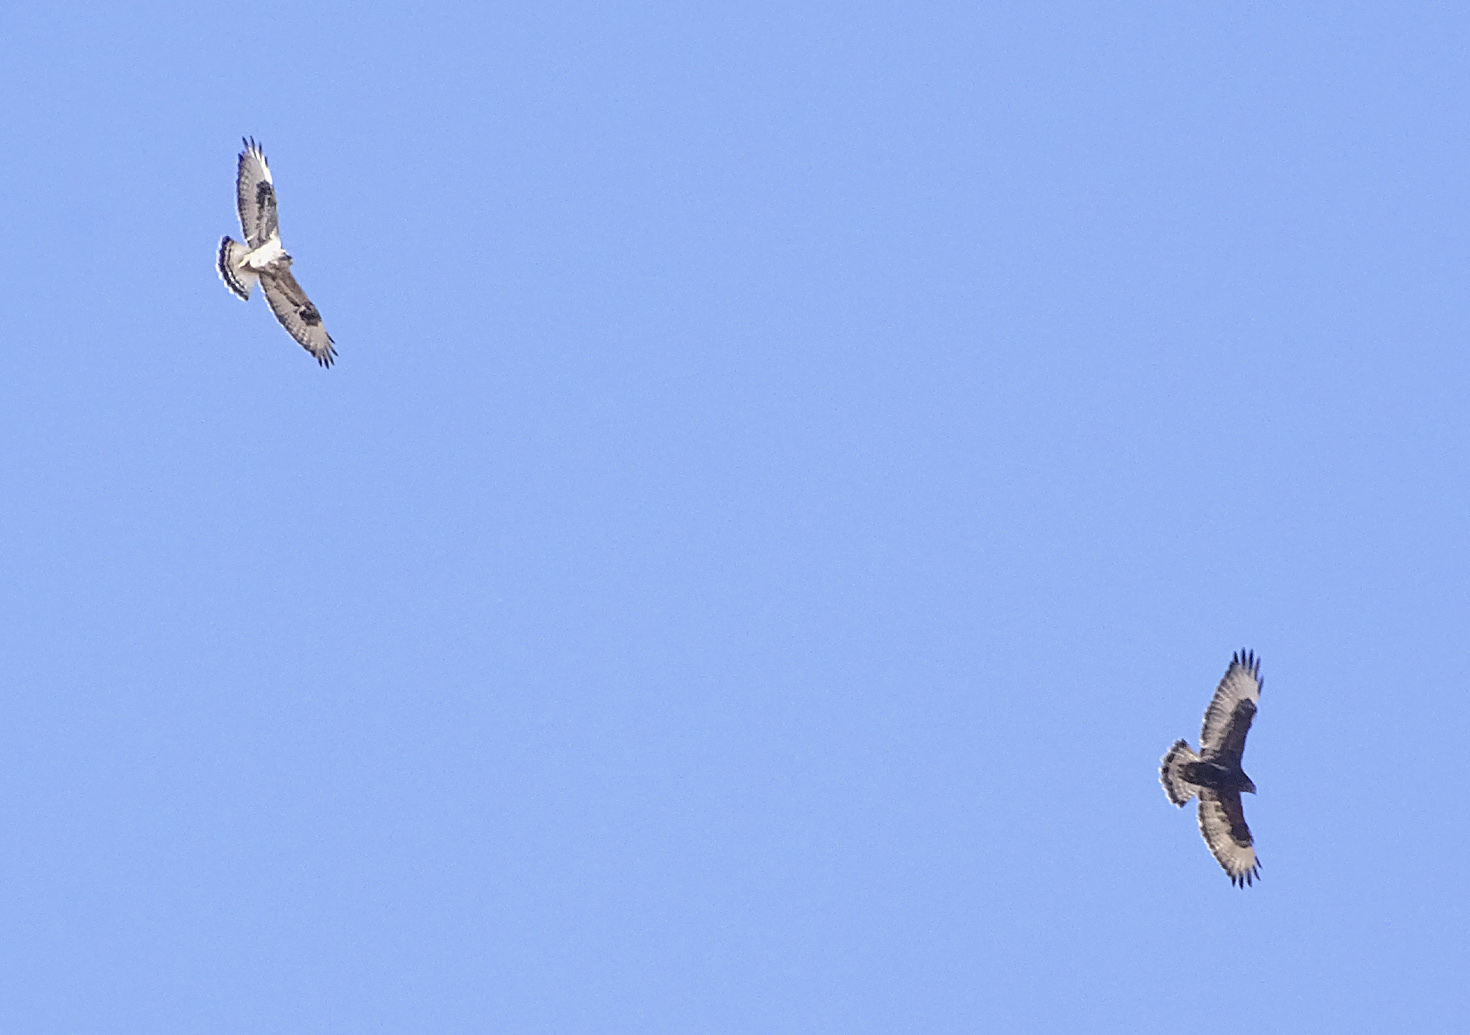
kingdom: Animalia
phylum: Chordata
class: Aves
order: Accipitriformes
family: Accipitridae
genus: Buteo
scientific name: Buteo lagopus
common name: Rough-legged buzzard
